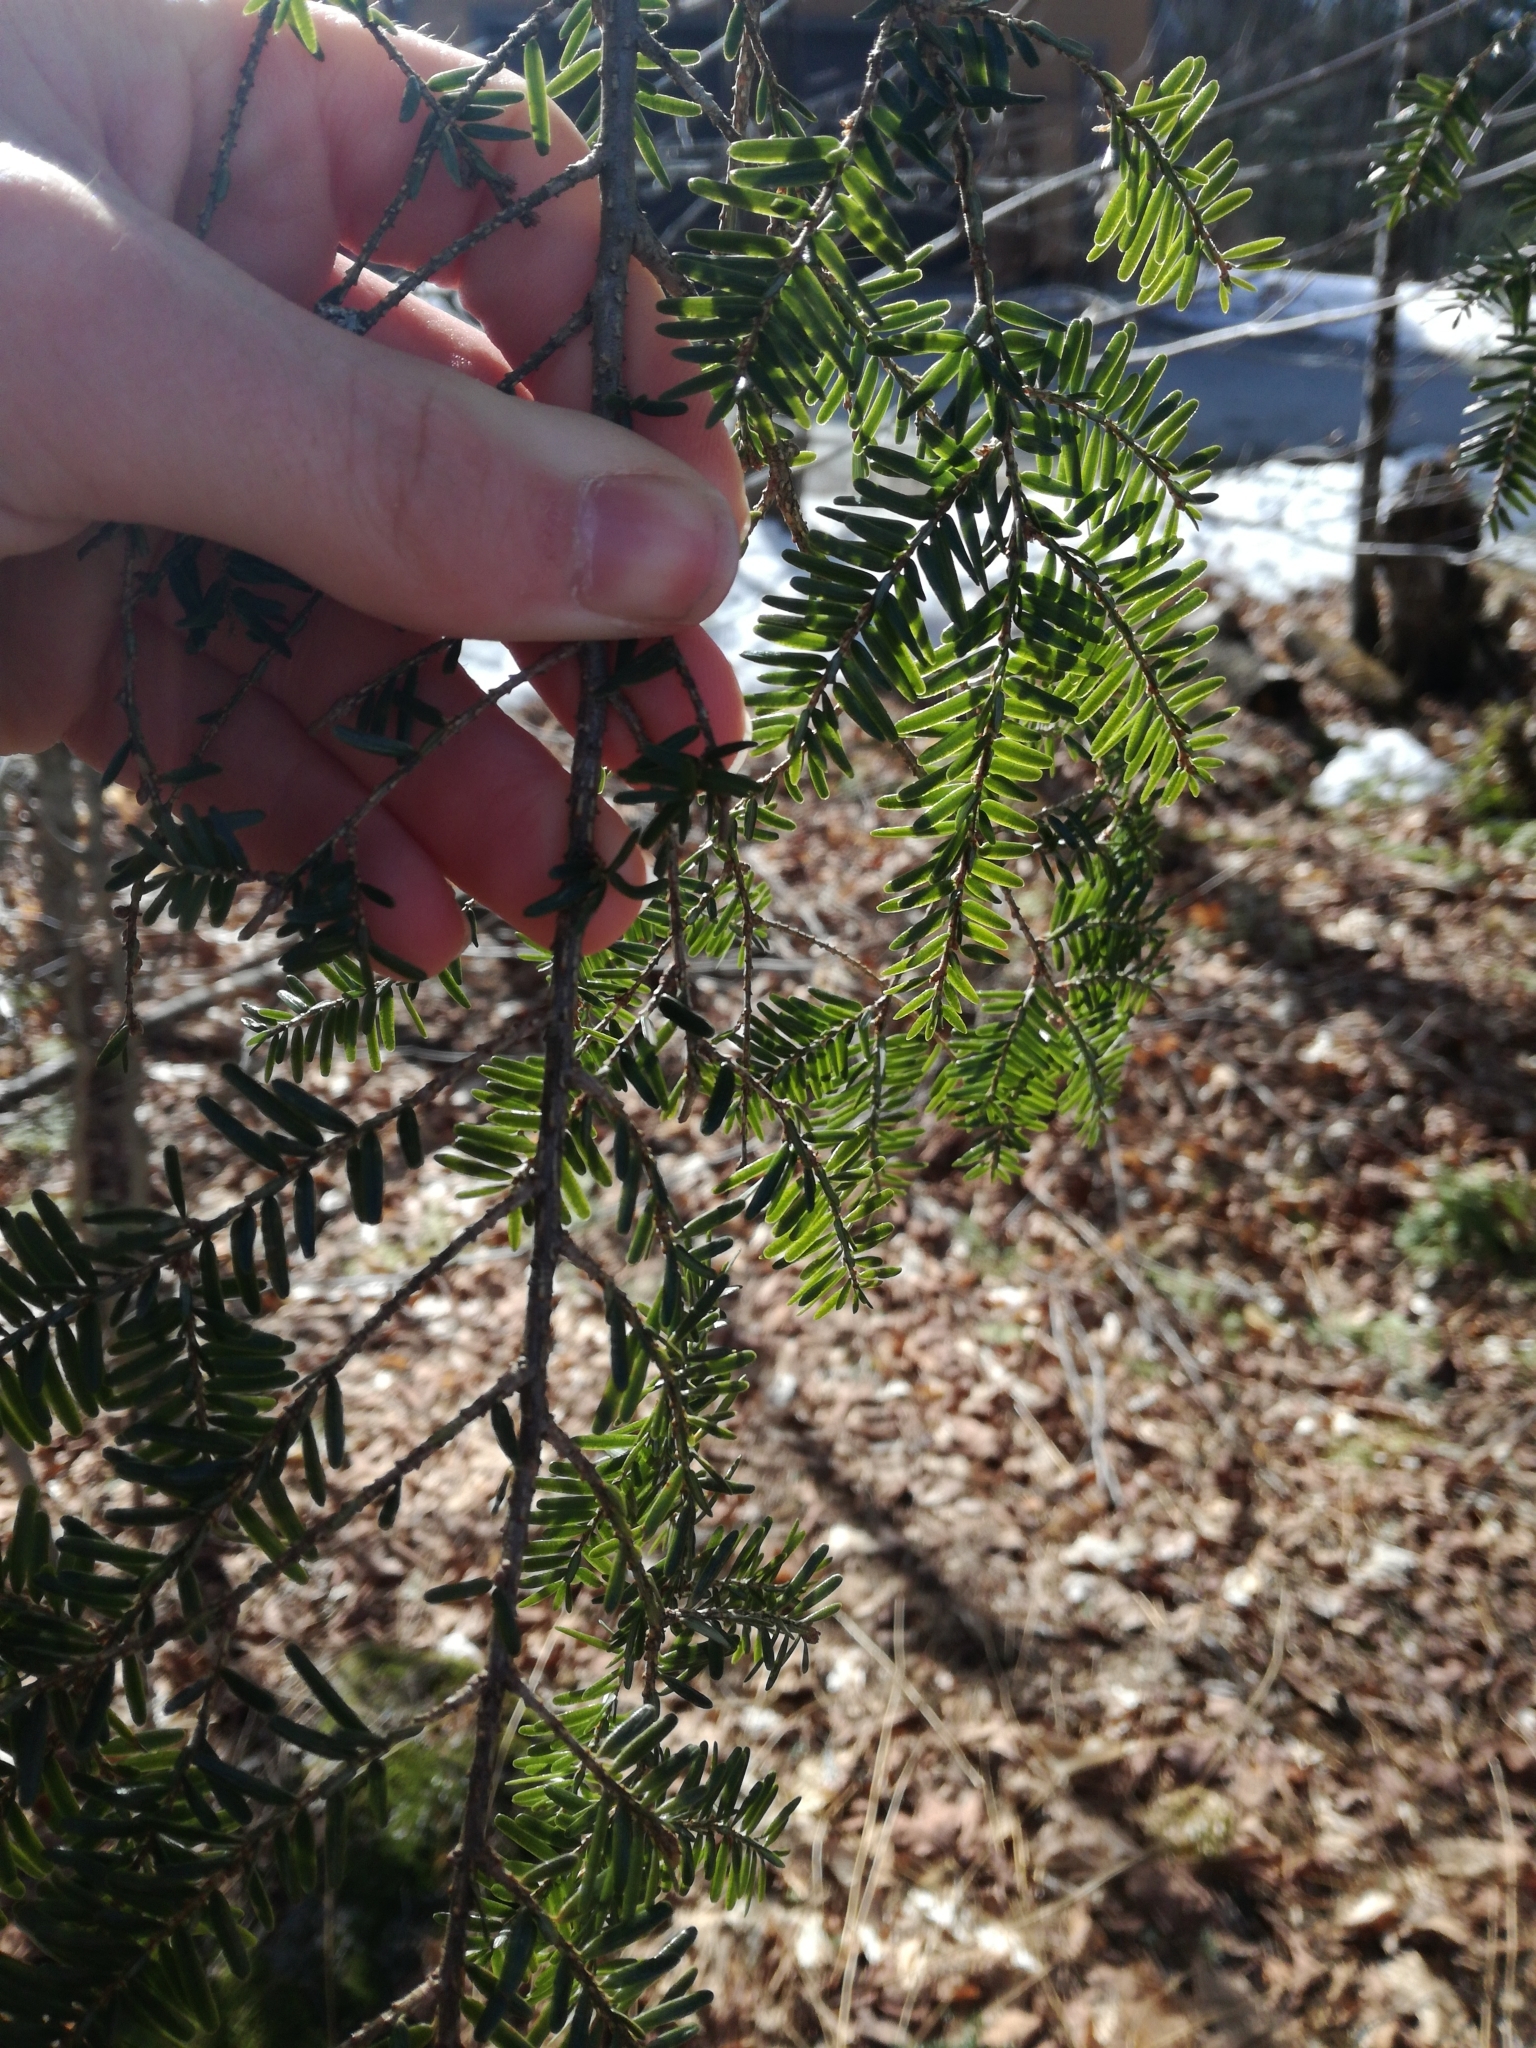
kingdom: Plantae
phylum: Tracheophyta
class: Pinopsida
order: Pinales
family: Pinaceae
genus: Tsuga
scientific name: Tsuga canadensis
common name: Eastern hemlock
